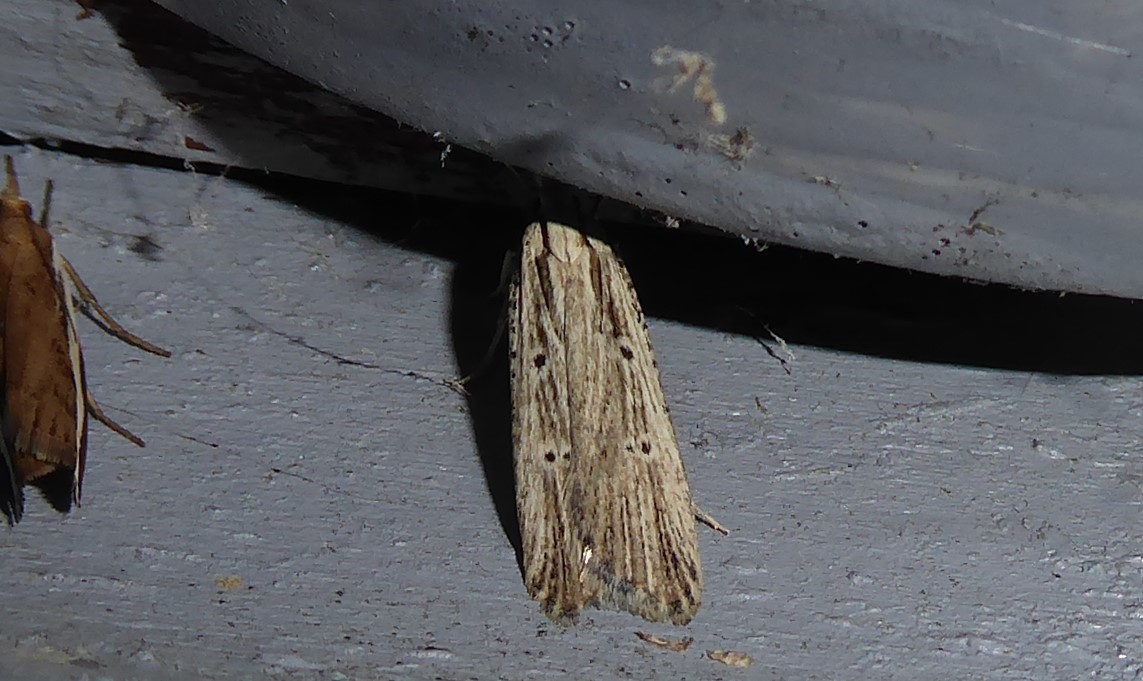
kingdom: Animalia
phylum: Arthropoda
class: Insecta
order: Lepidoptera
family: Gelechiidae
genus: Anisoplaca
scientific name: Anisoplaca ptyoptera
